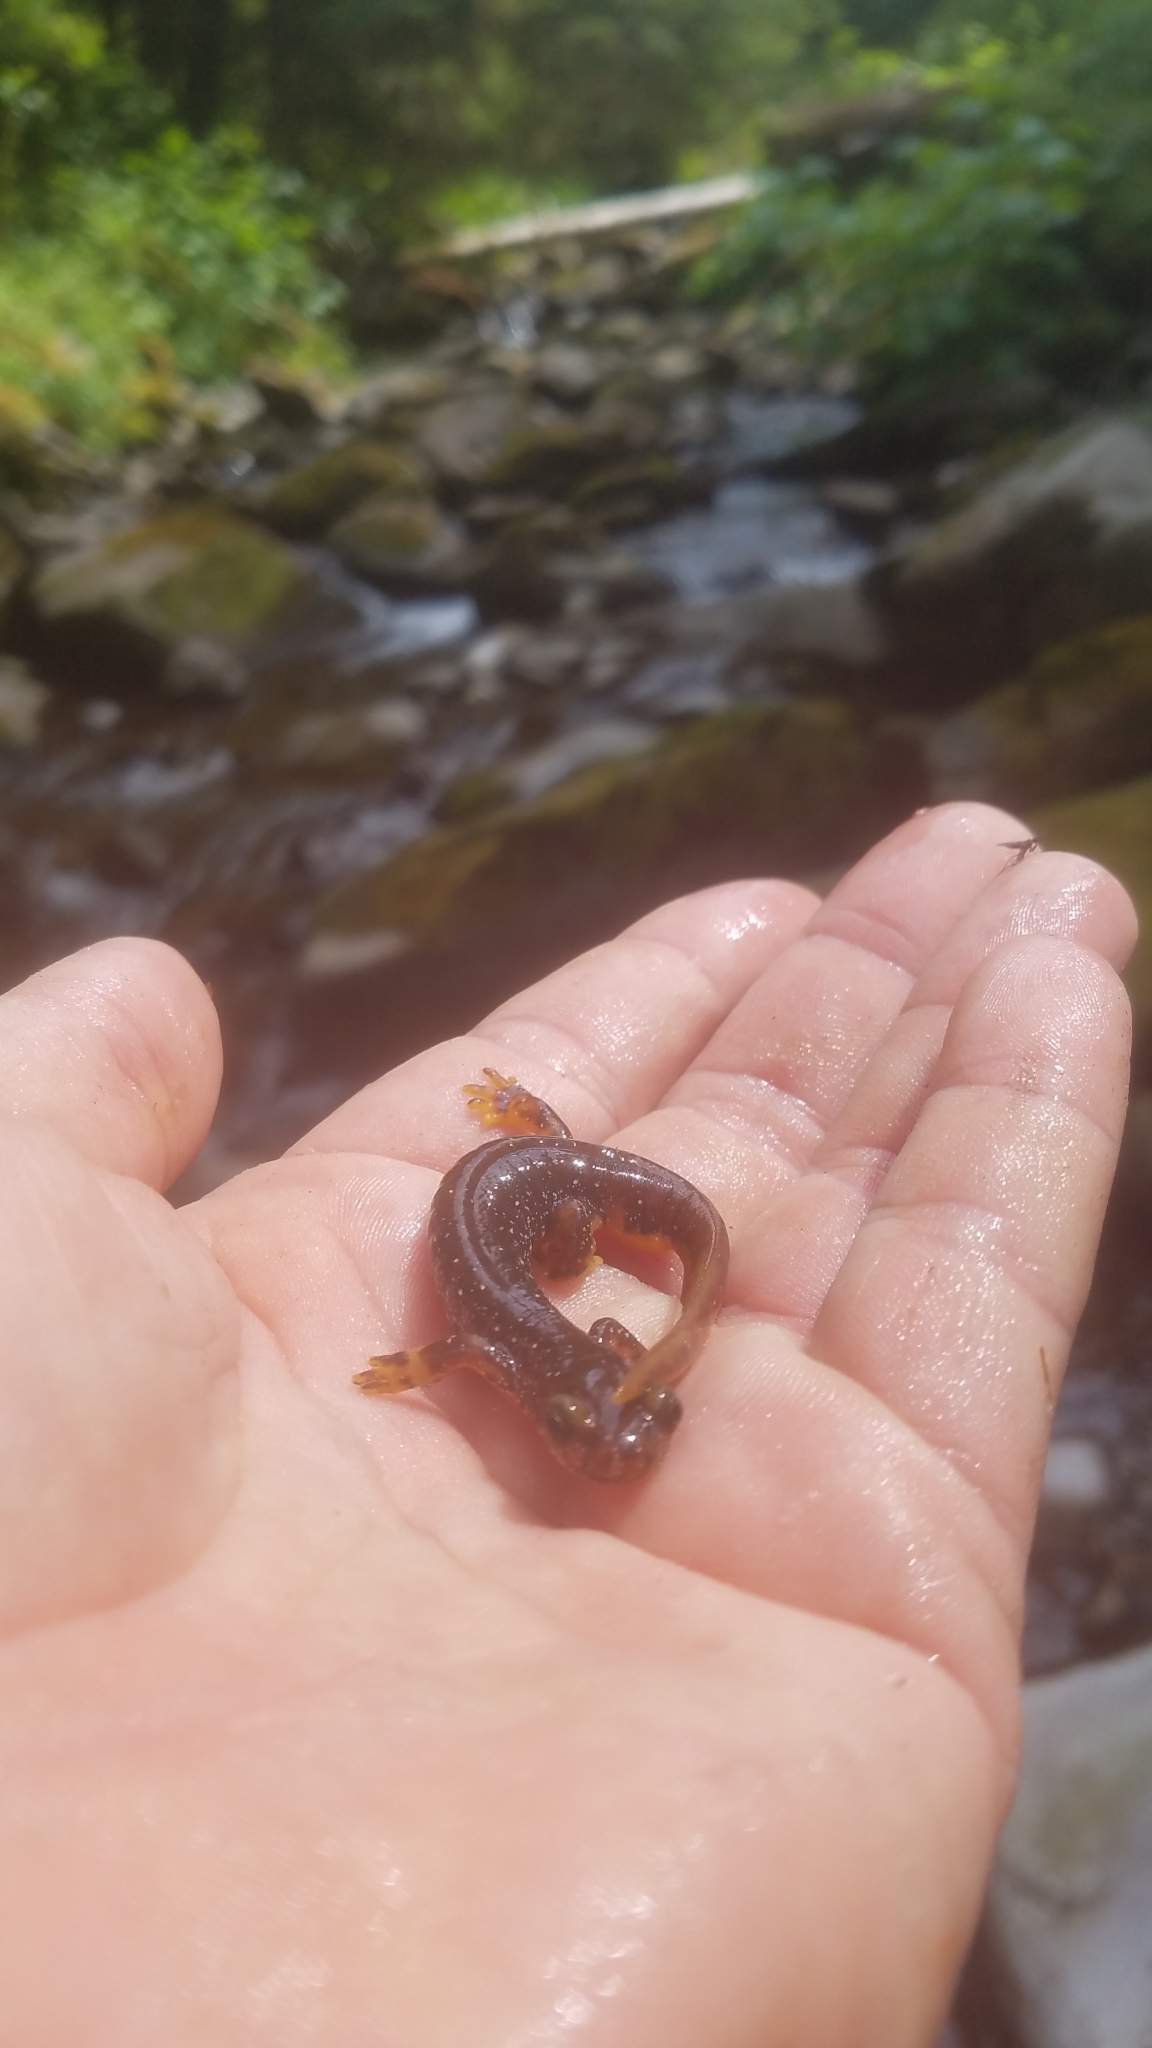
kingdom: Animalia
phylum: Chordata
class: Amphibia
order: Caudata
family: Rhyacotritonidae
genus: Rhyacotriton
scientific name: Rhyacotriton olympicus
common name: Olympic torrent salamander
